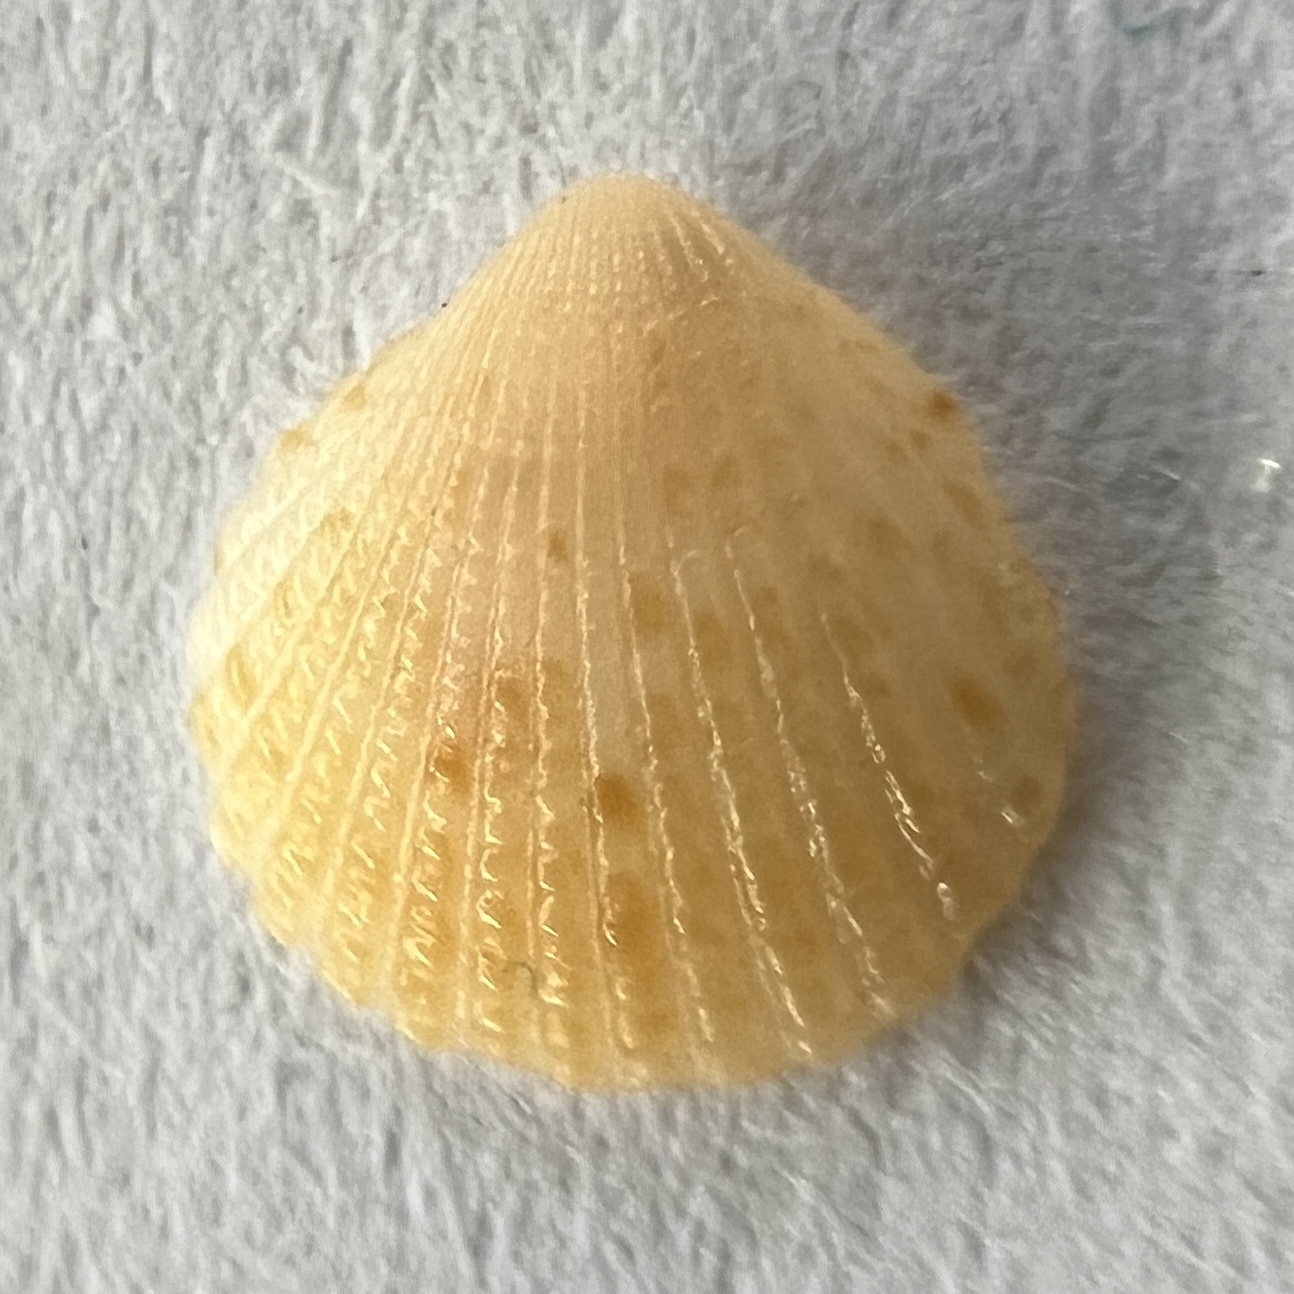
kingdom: Animalia
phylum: Mollusca
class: Bivalvia
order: Carditida
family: Carditidae
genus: Pleuromeris
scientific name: Pleuromeris tridentata
